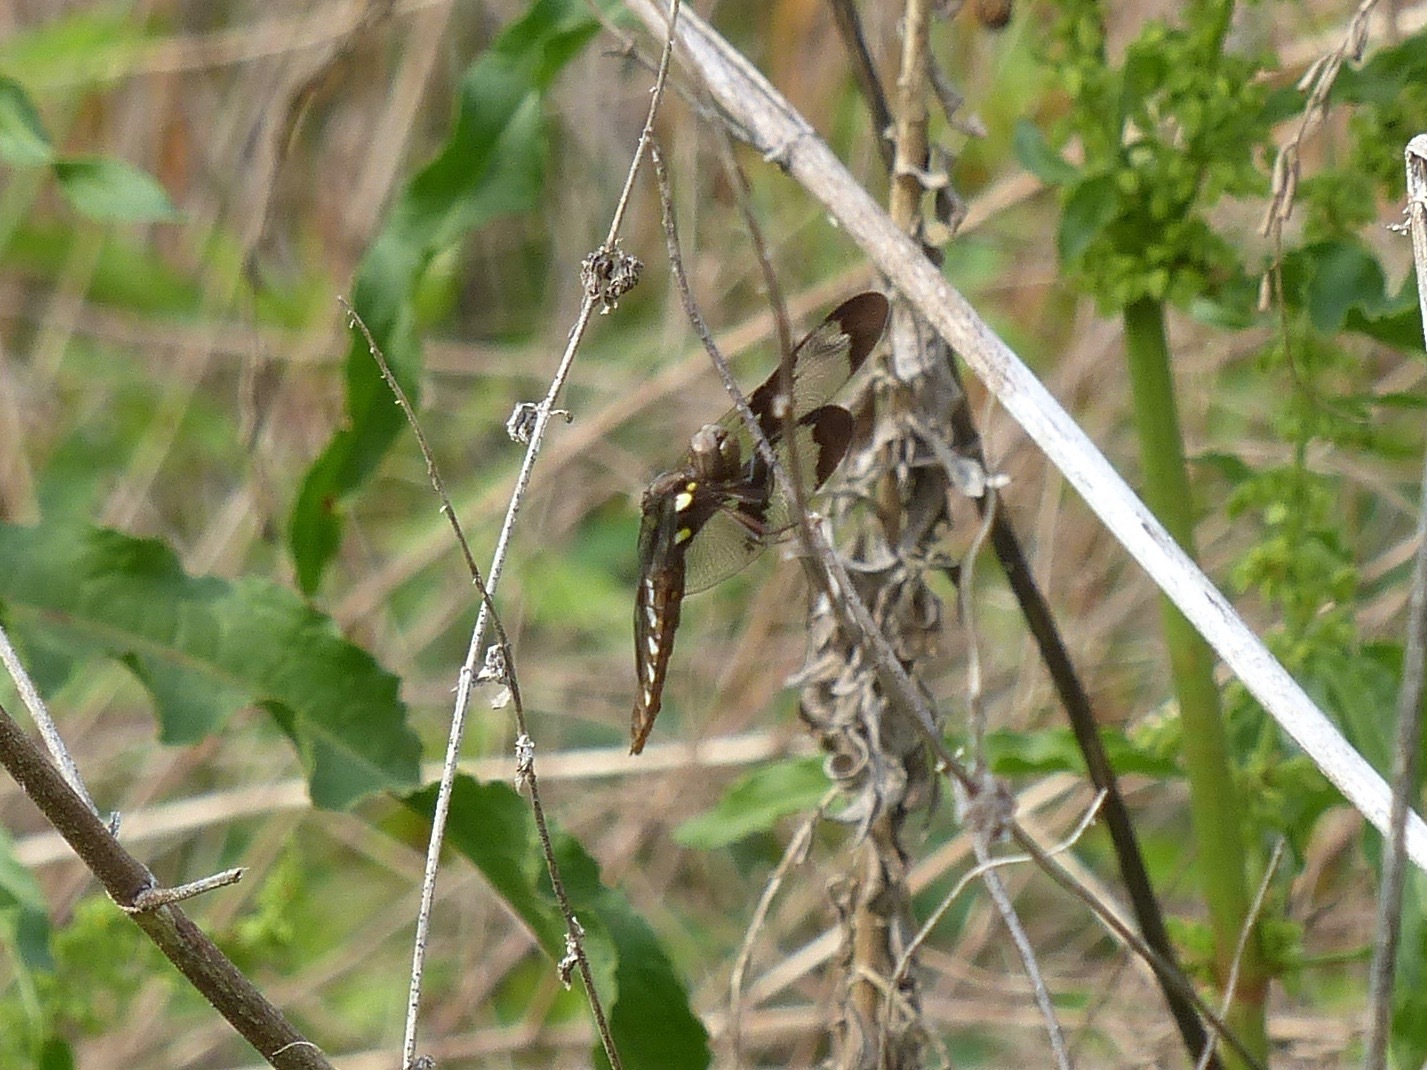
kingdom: Animalia
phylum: Arthropoda
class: Insecta
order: Odonata
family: Libellulidae
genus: Plathemis
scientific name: Plathemis lydia
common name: Common whitetail
